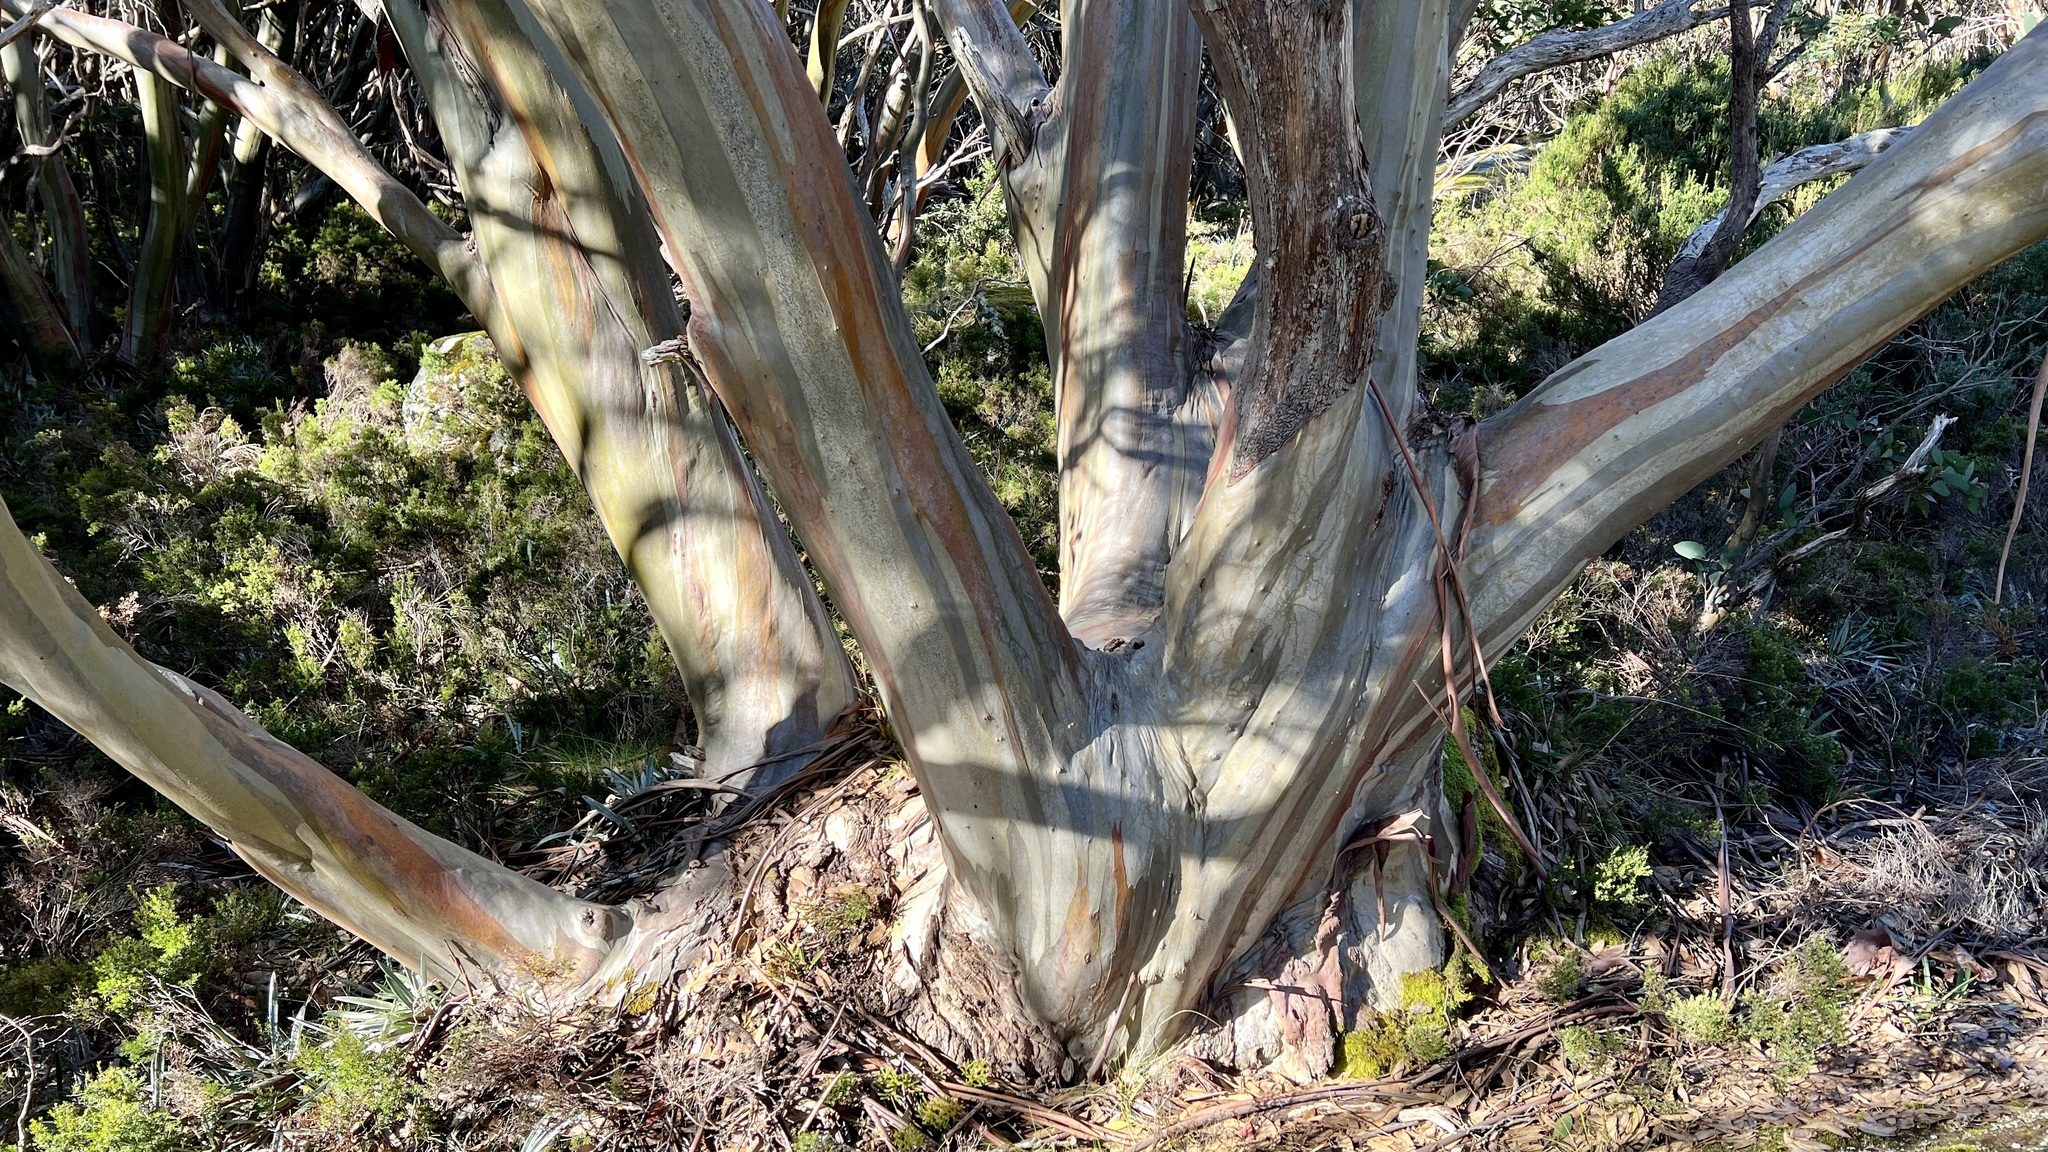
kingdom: Plantae
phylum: Tracheophyta
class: Magnoliopsida
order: Myrtales
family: Myrtaceae
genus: Eucalyptus
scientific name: Eucalyptus pauciflora
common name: Snow gum
